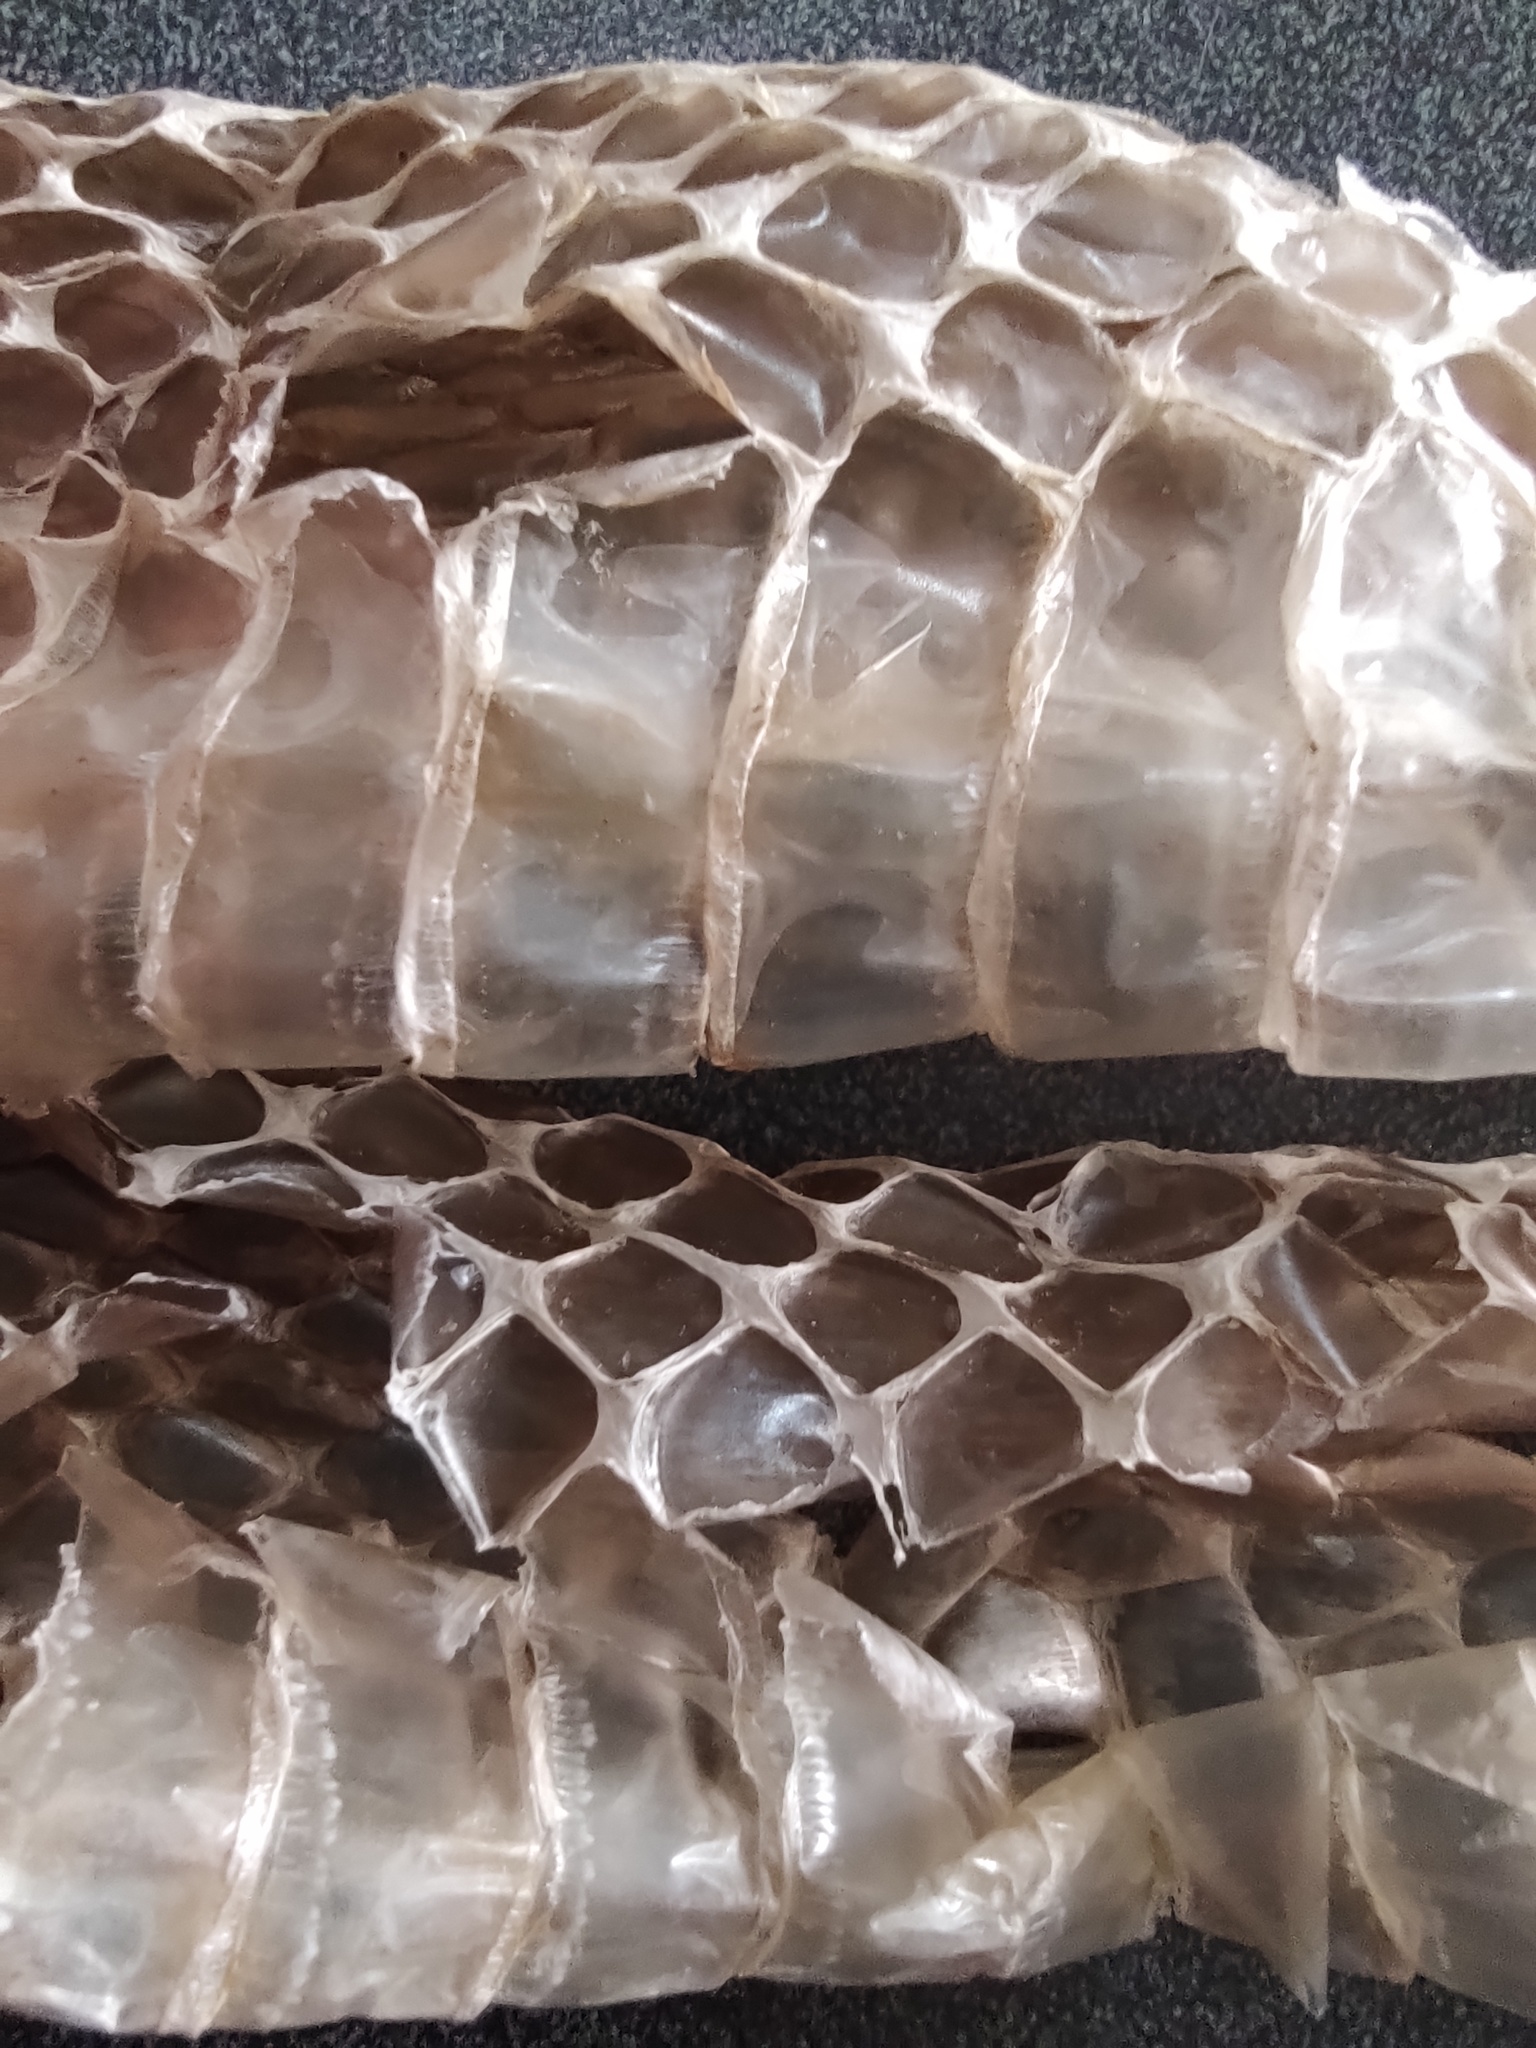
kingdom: Animalia
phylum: Chordata
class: Squamata
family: Colubridae
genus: Masticophis
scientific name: Masticophis mentovarius
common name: Neotropical whip snake
